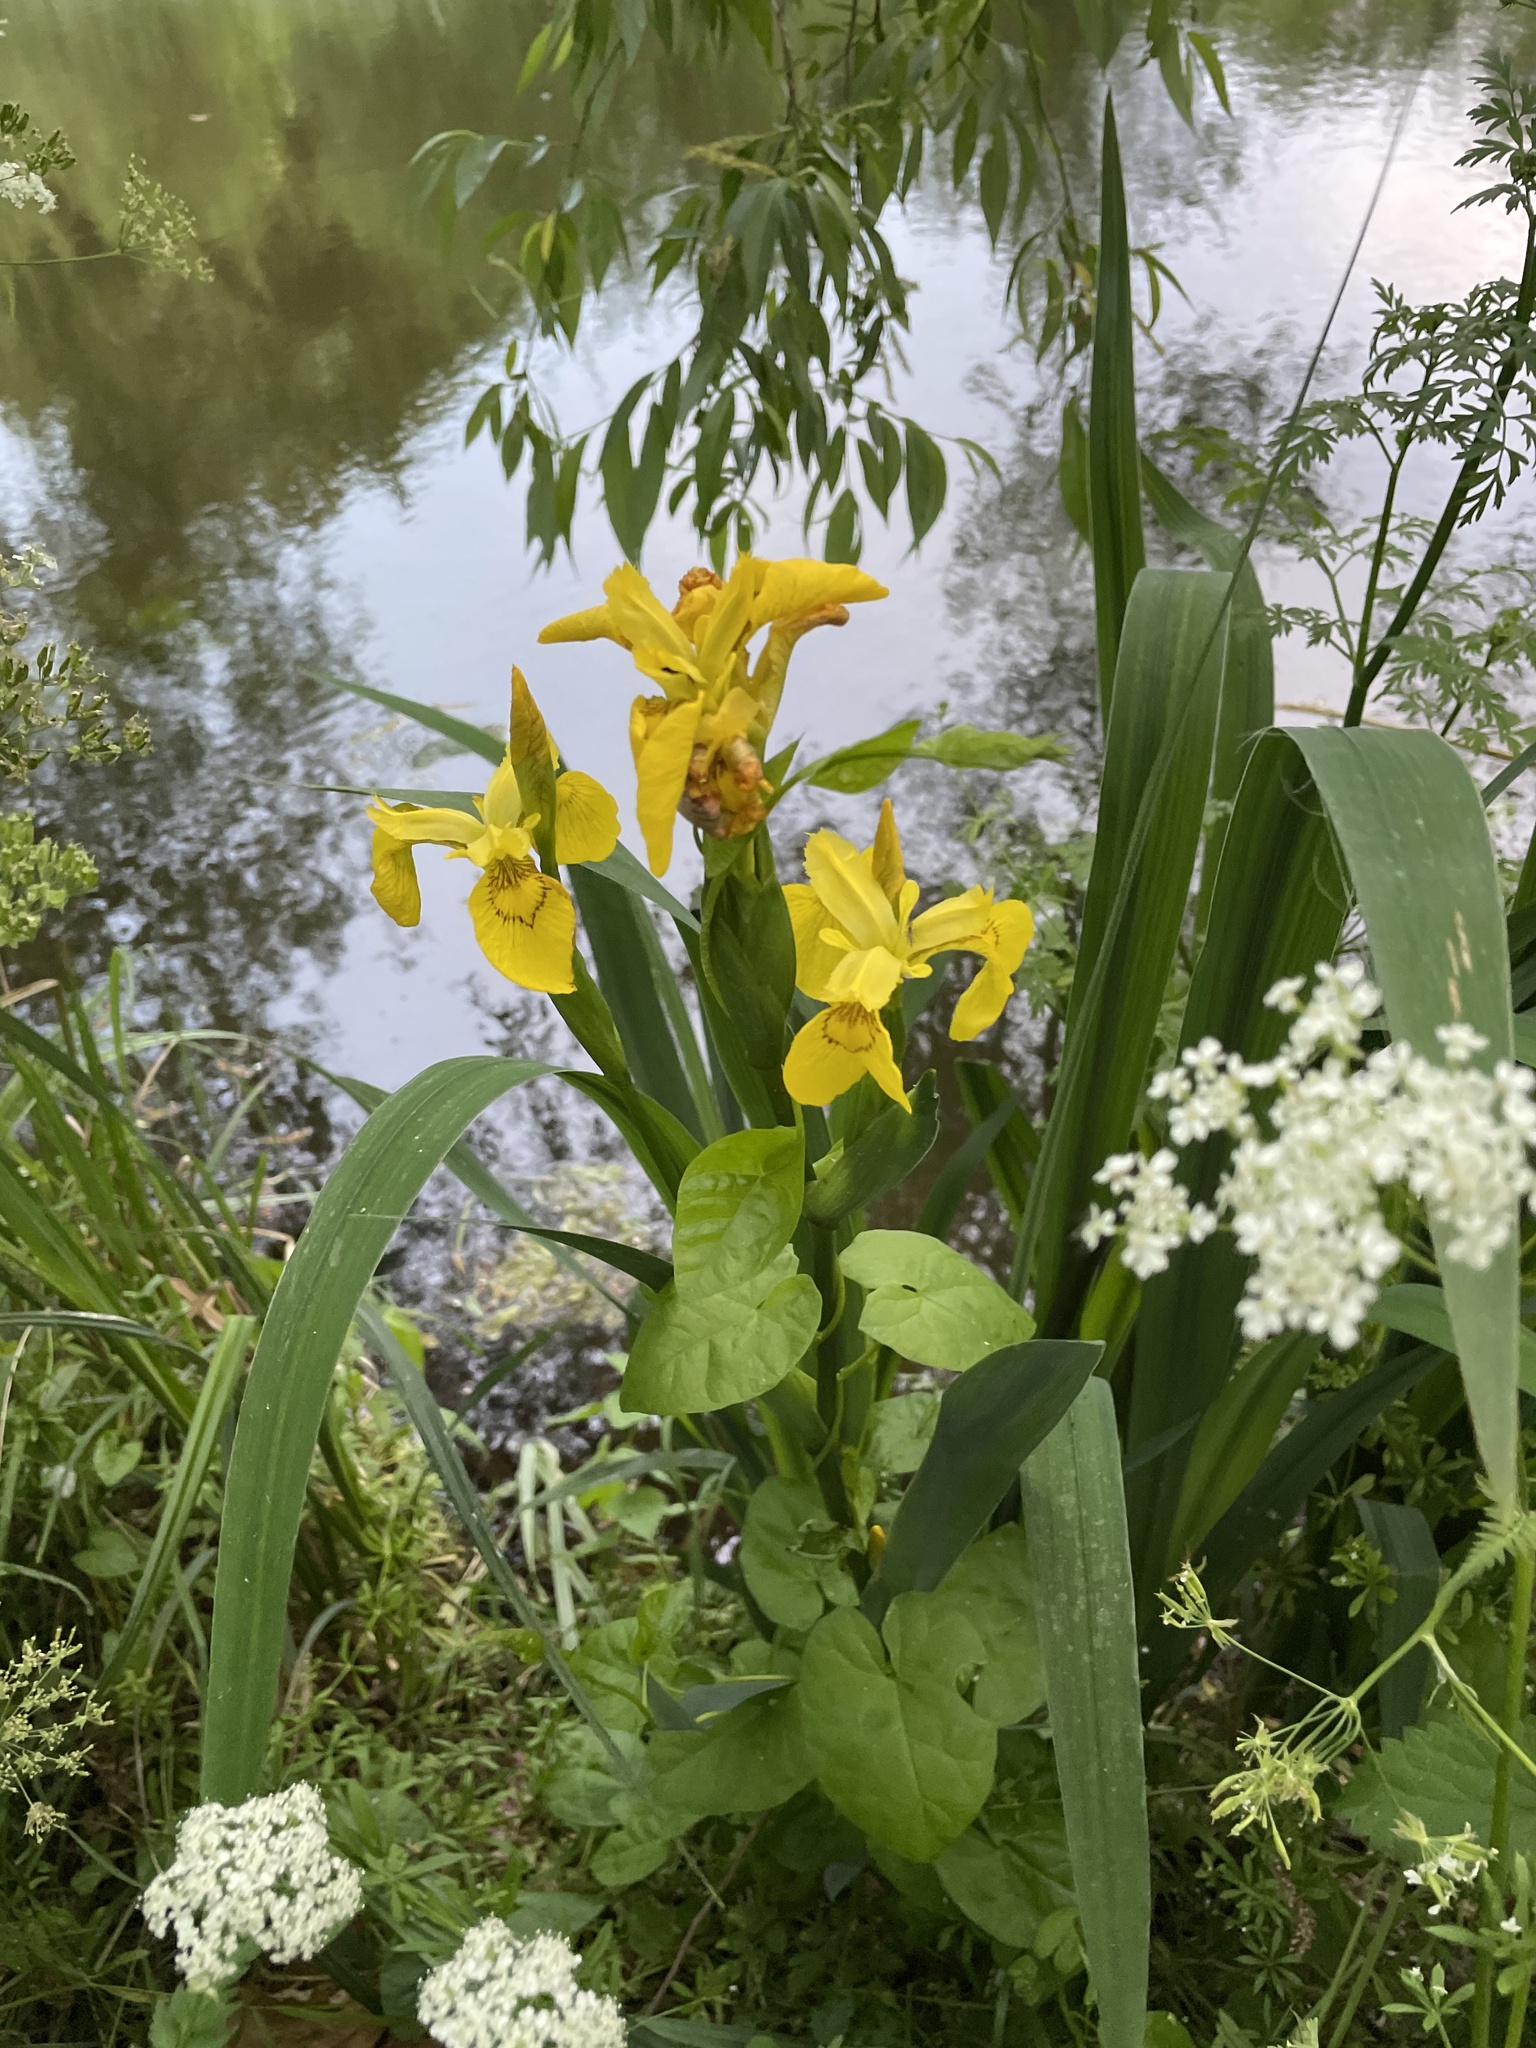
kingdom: Plantae
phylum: Tracheophyta
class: Liliopsida
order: Asparagales
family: Iridaceae
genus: Iris
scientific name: Iris pseudacorus
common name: Yellow flag
